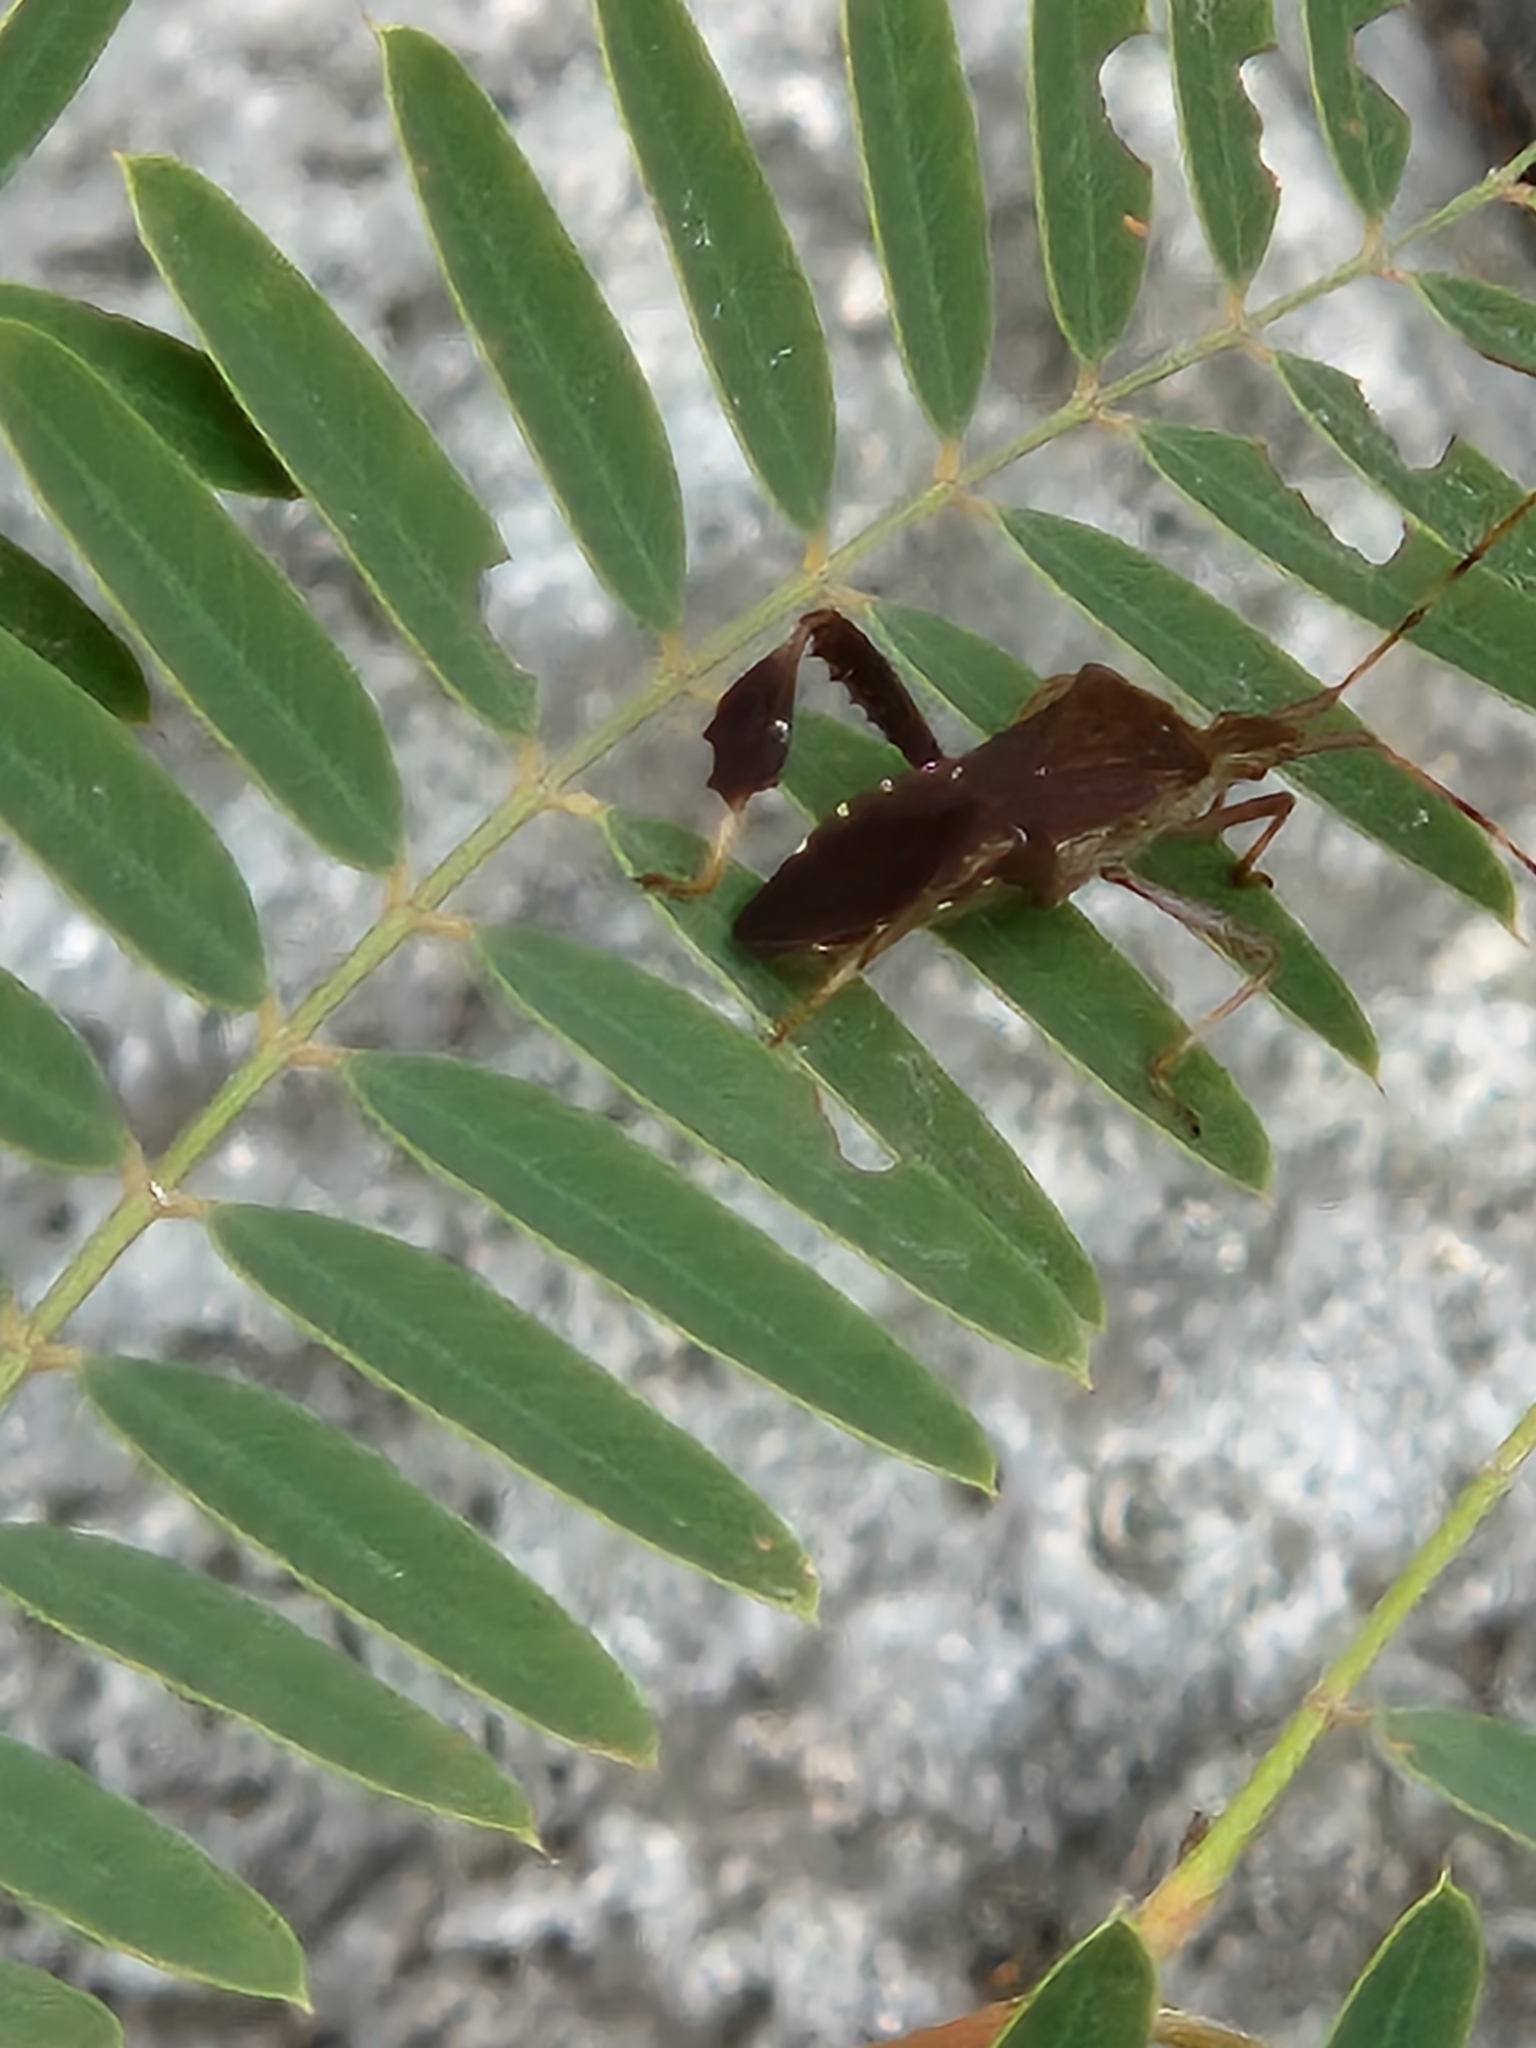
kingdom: Animalia
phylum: Arthropoda
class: Insecta
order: Hemiptera
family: Coreidae
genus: Leptoglossus
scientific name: Leptoglossus oppositus
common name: Northern leaf-footed bug
